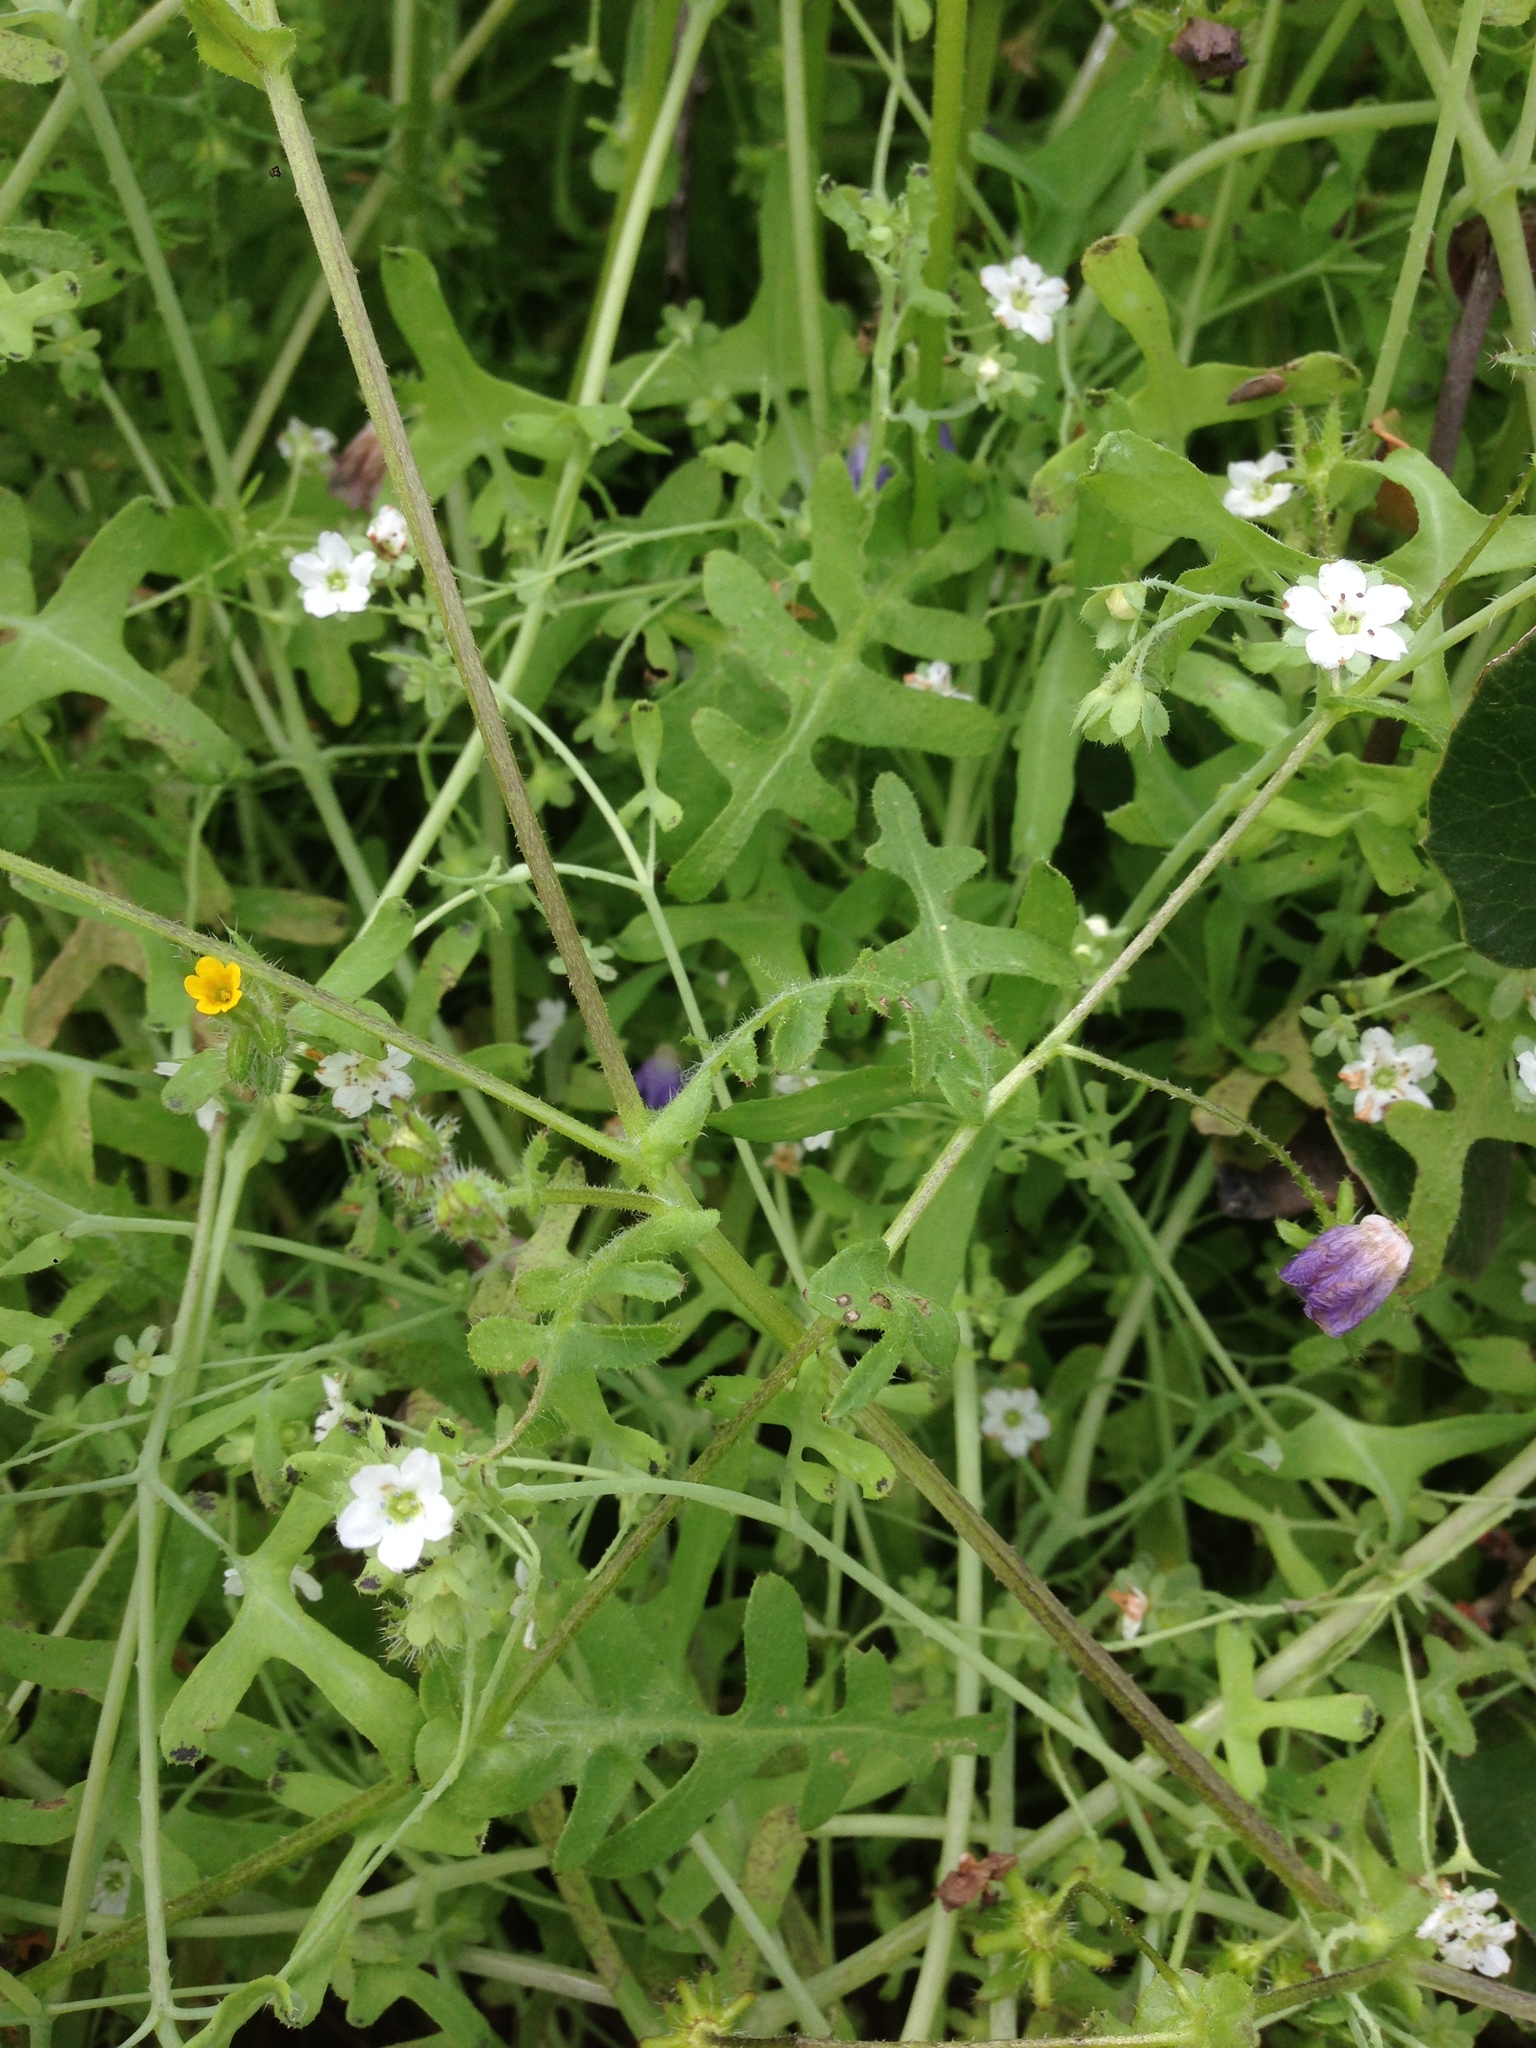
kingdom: Plantae
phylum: Tracheophyta
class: Magnoliopsida
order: Boraginales
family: Hydrophyllaceae
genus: Pholistoma
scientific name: Pholistoma membranaceum
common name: White fiesta-flower
